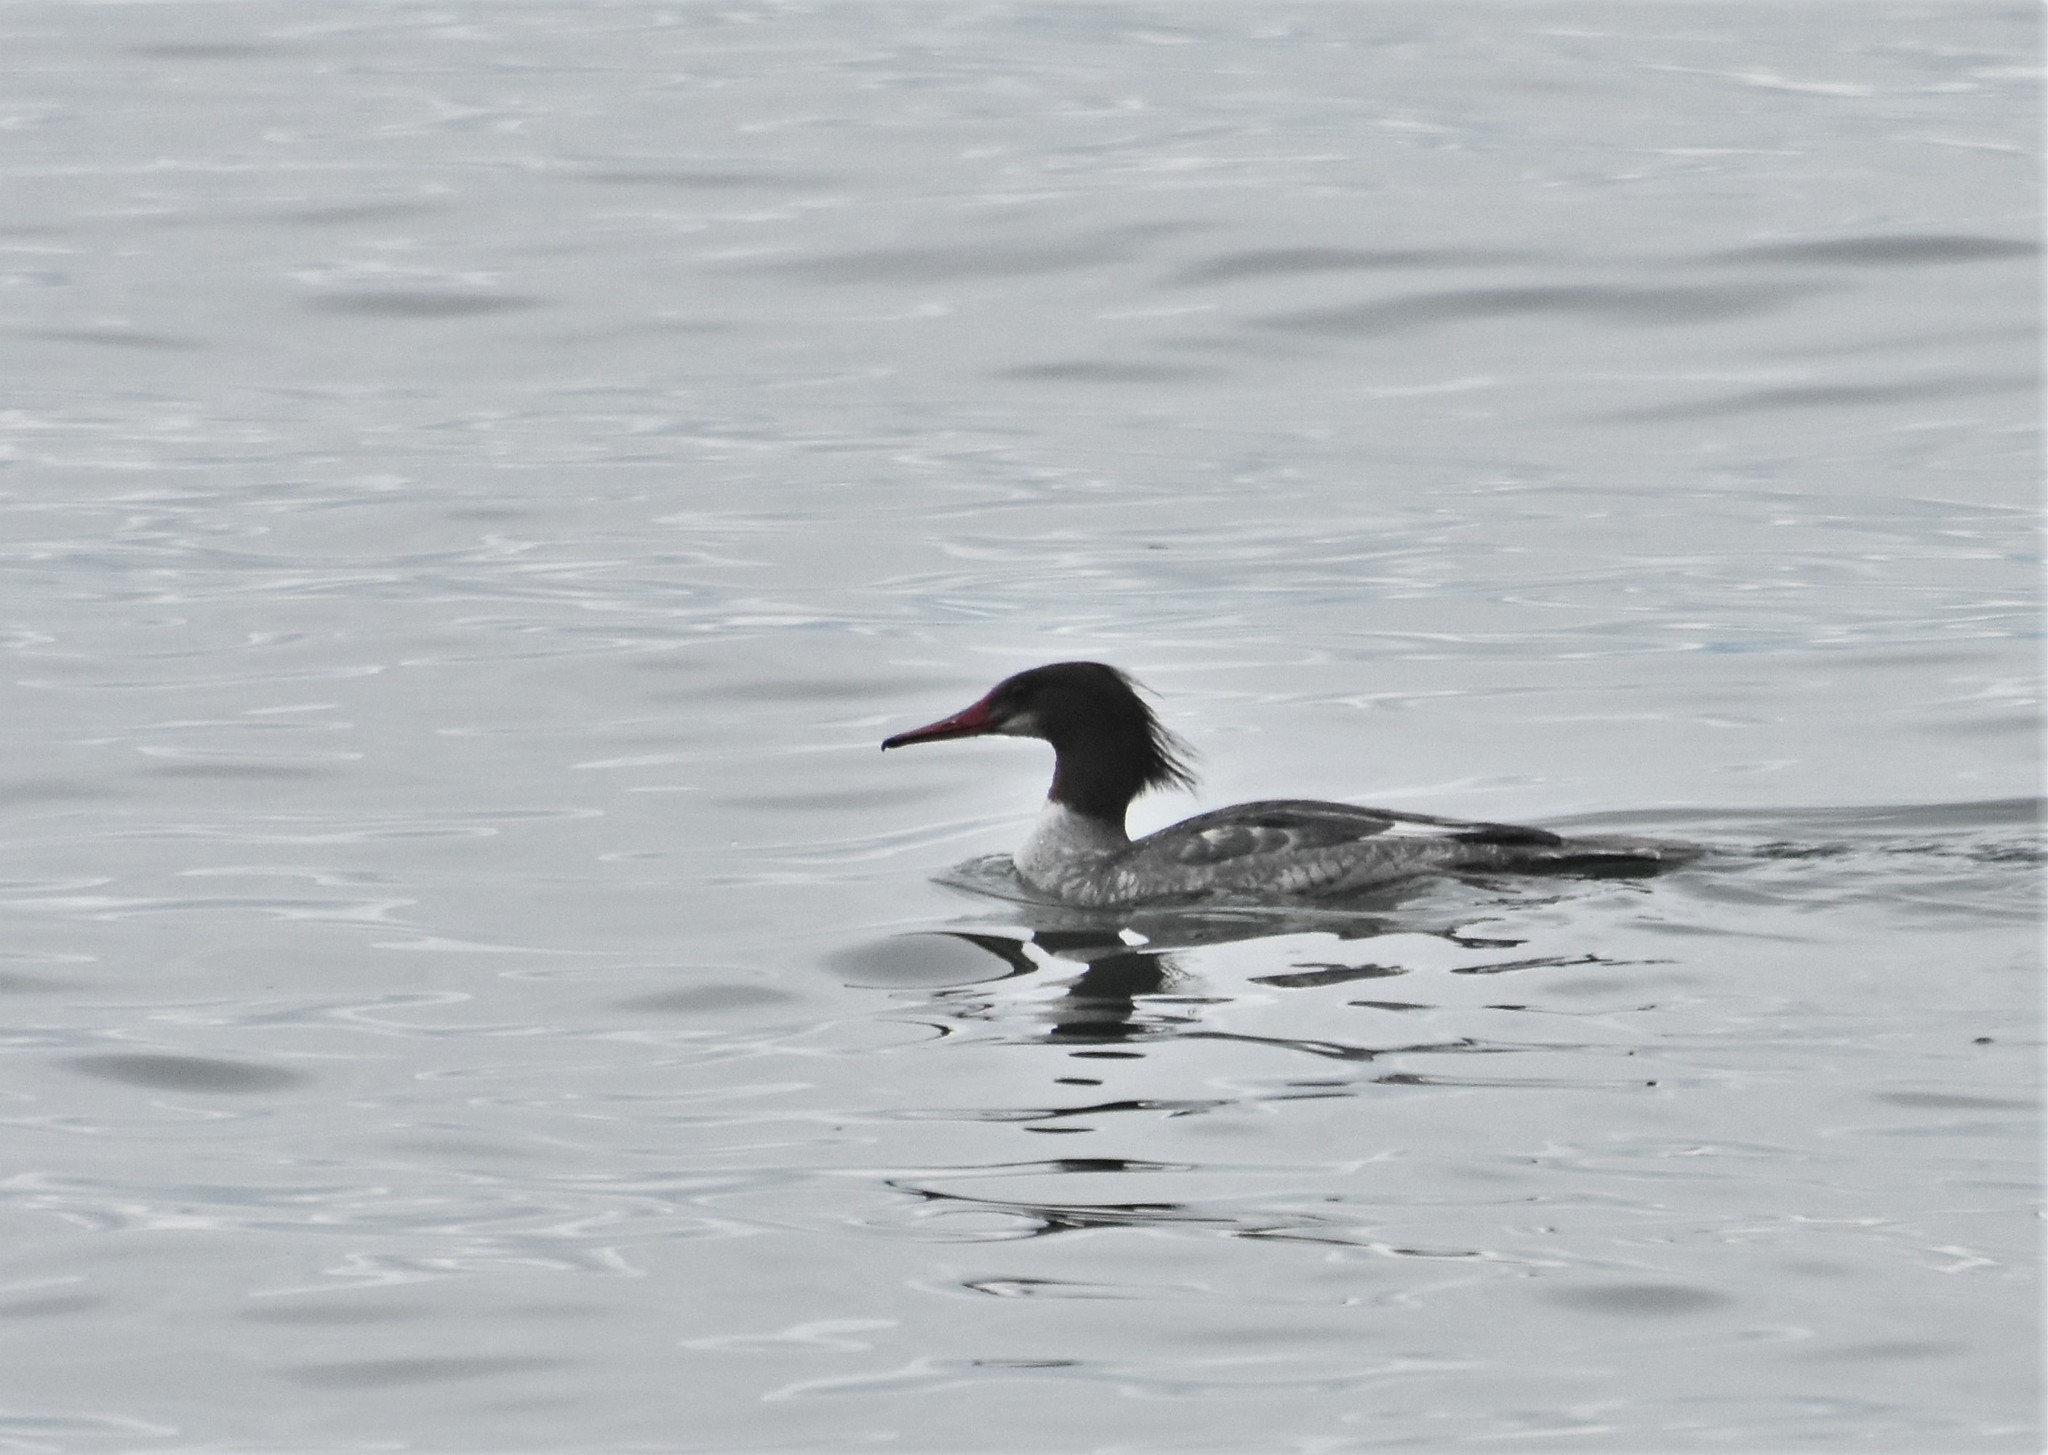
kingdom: Animalia
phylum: Chordata
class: Aves
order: Anseriformes
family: Anatidae
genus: Mergus
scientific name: Mergus merganser
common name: Common merganser
